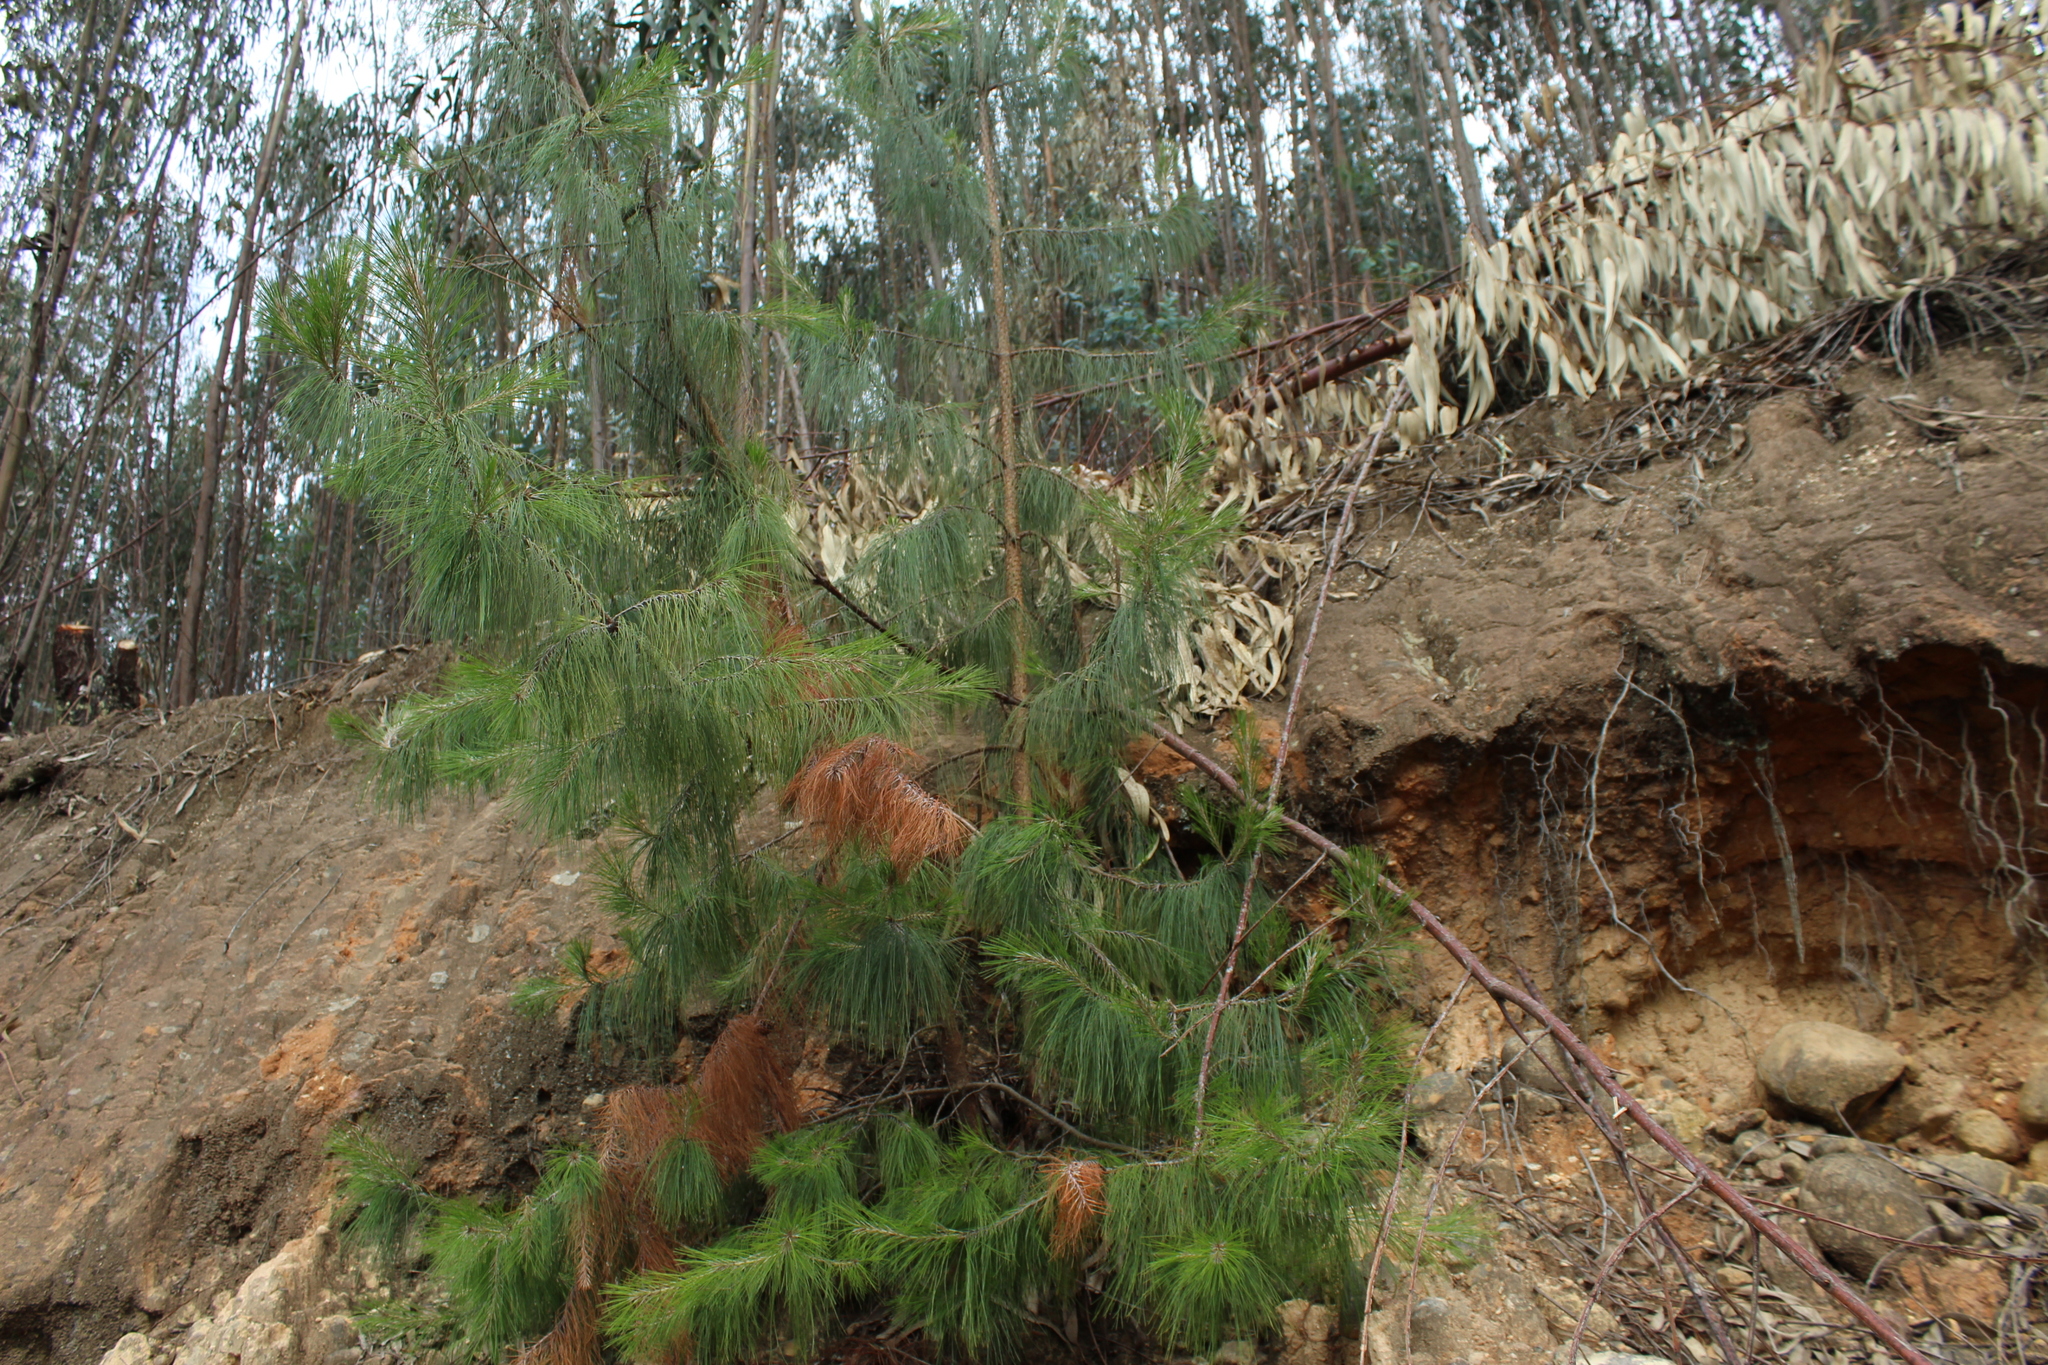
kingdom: Plantae
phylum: Tracheophyta
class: Pinopsida
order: Pinales
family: Pinaceae
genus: Pinus
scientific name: Pinus patula
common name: Mexican weeping pine
